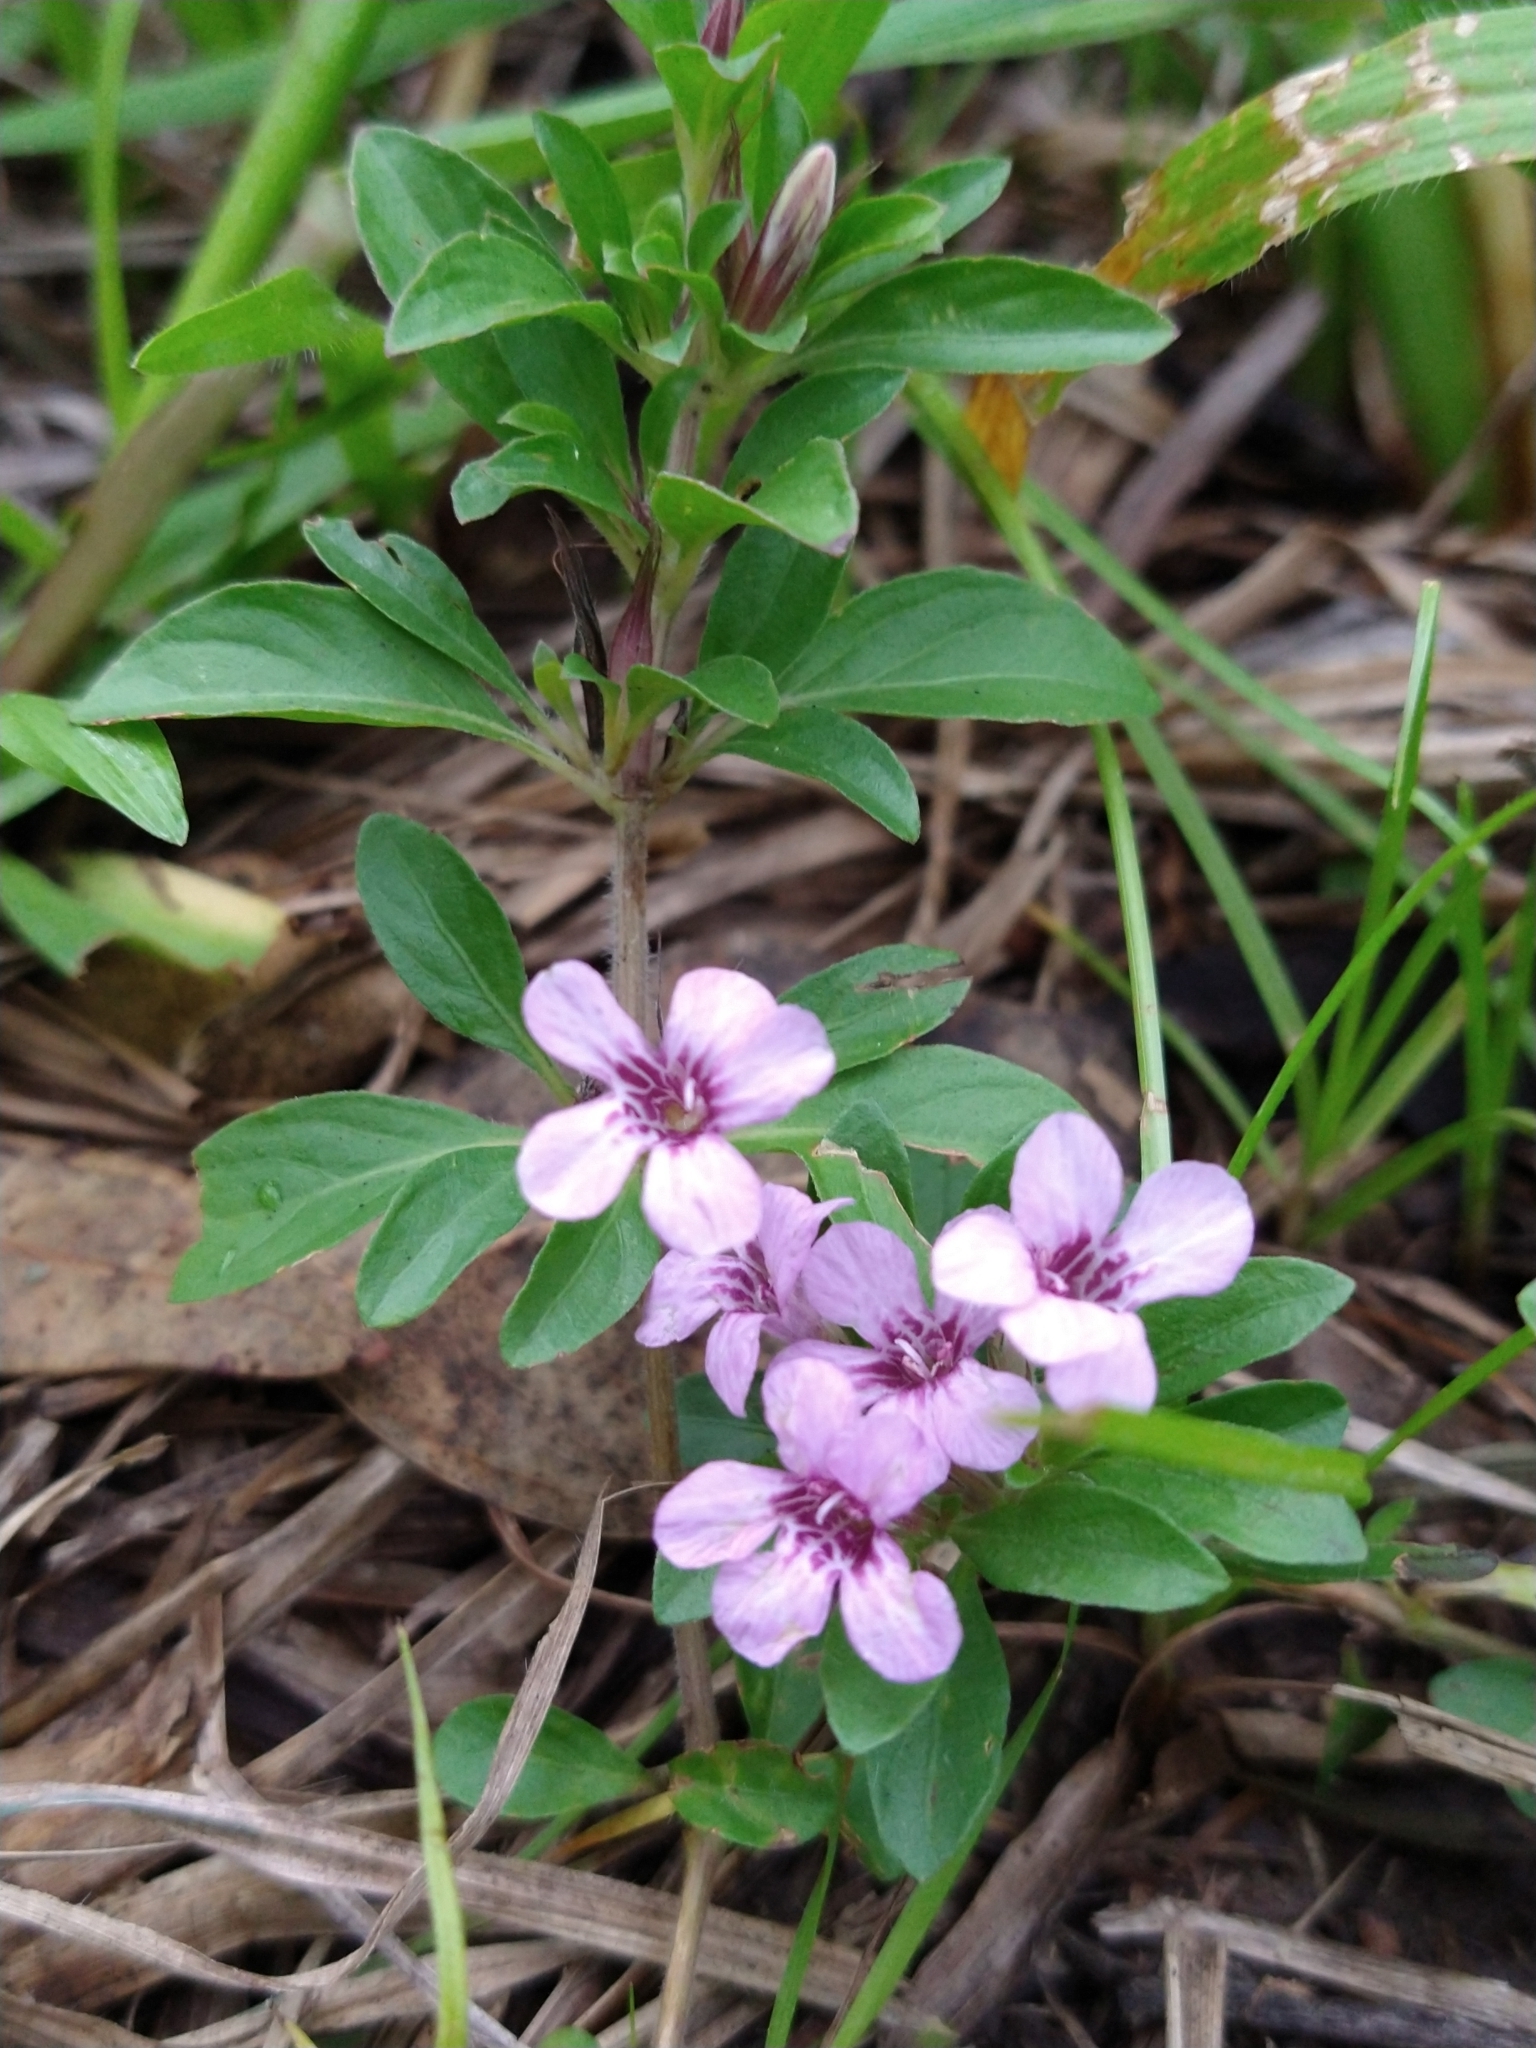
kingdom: Plantae
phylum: Tracheophyta
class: Magnoliopsida
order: Lamiales
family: Acanthaceae
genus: Dyschoriste
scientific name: Dyschoriste microphylla
